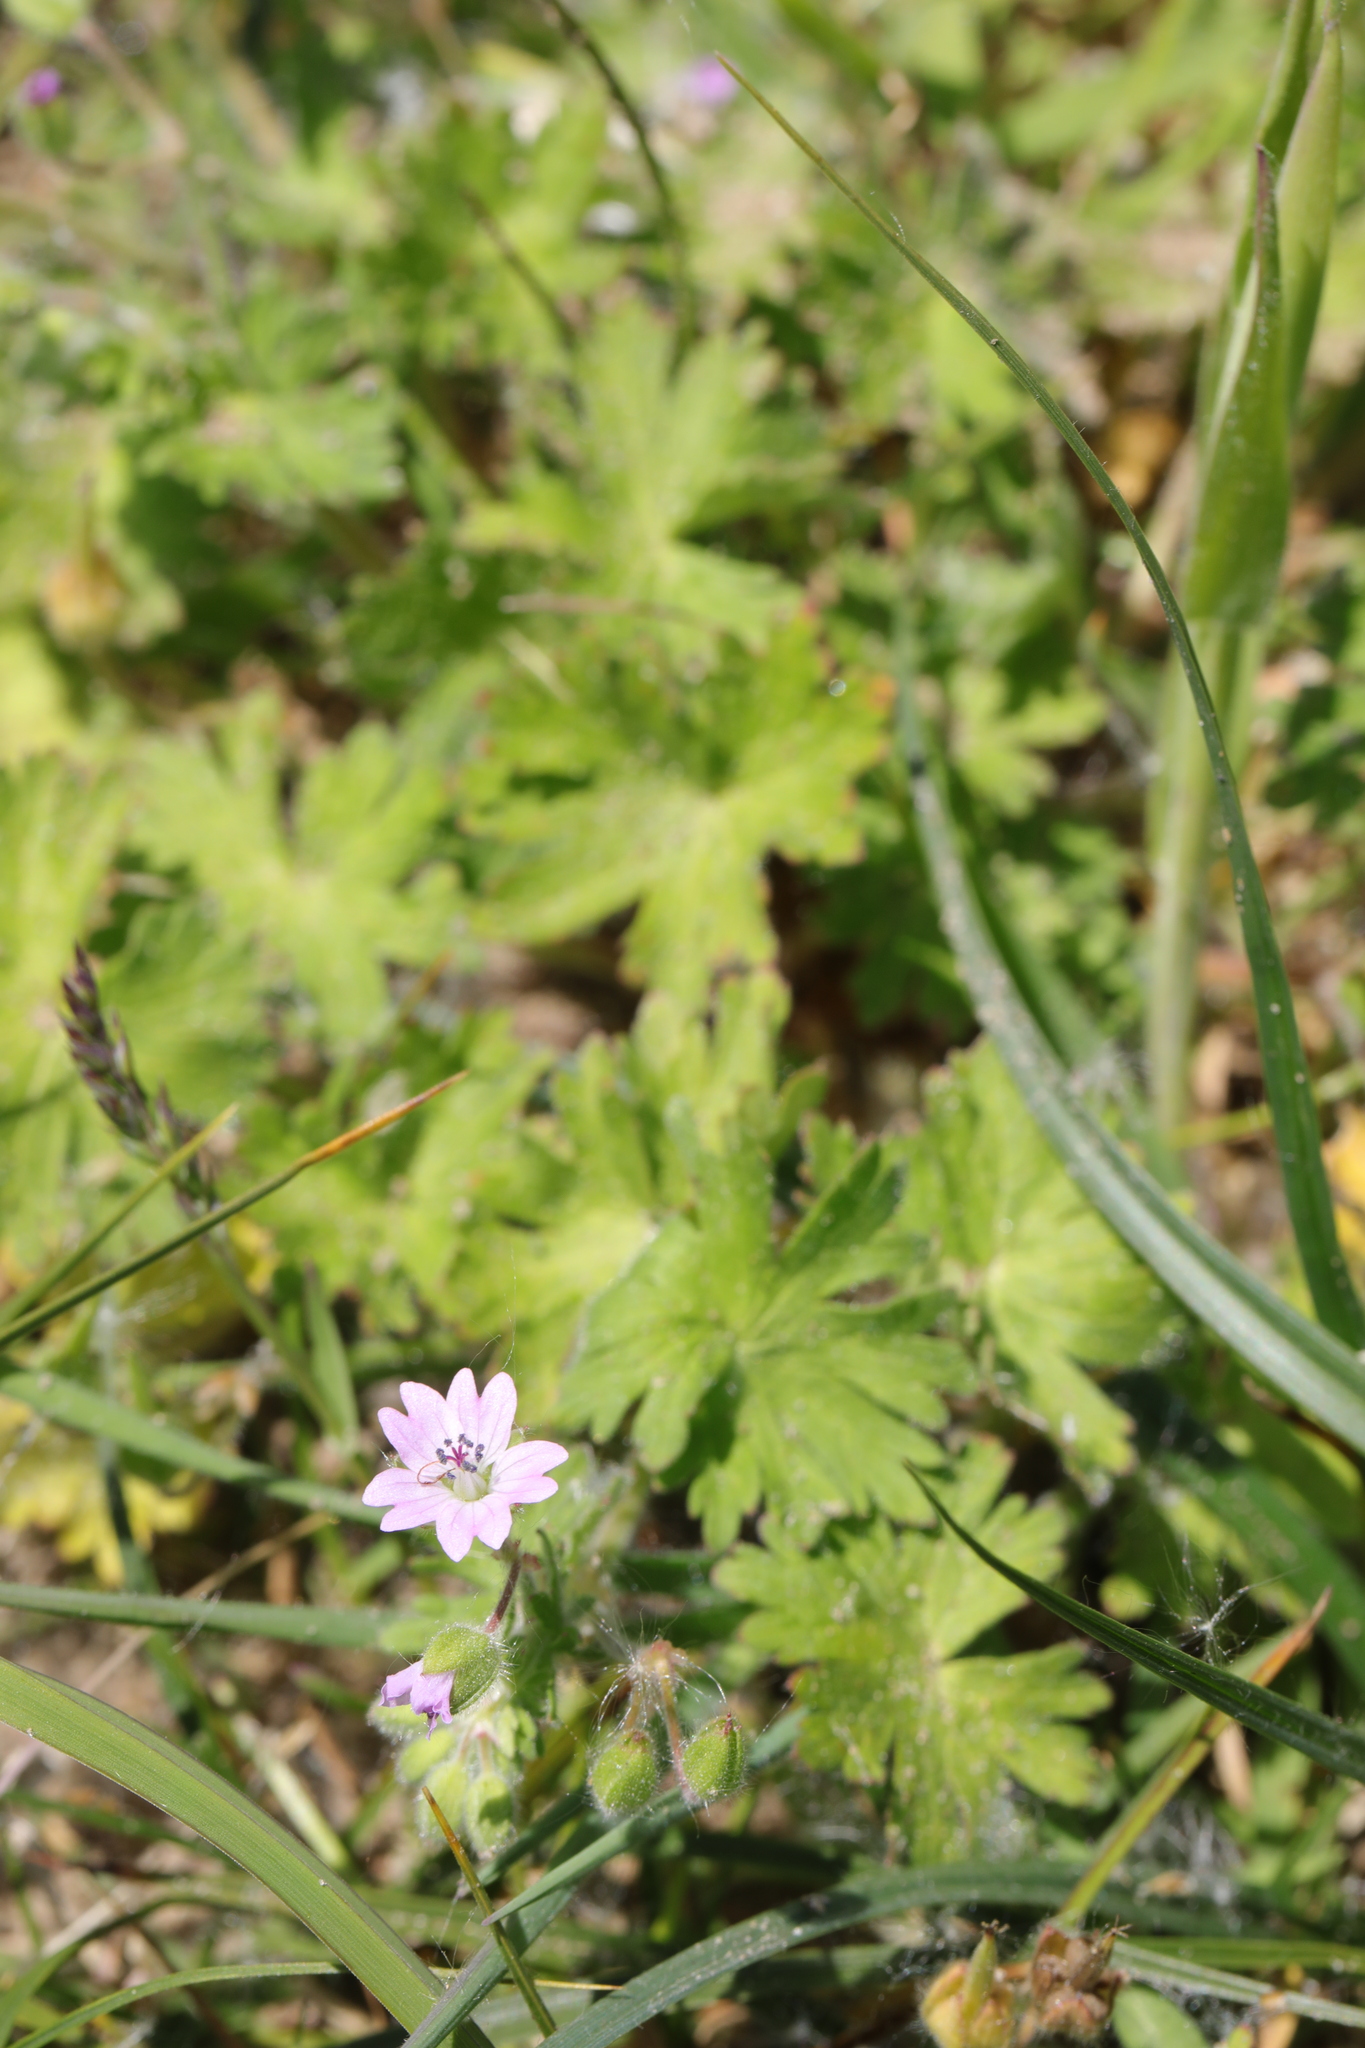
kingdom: Plantae
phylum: Tracheophyta
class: Magnoliopsida
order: Geraniales
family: Geraniaceae
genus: Geranium
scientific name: Geranium molle
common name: Dove's-foot crane's-bill
